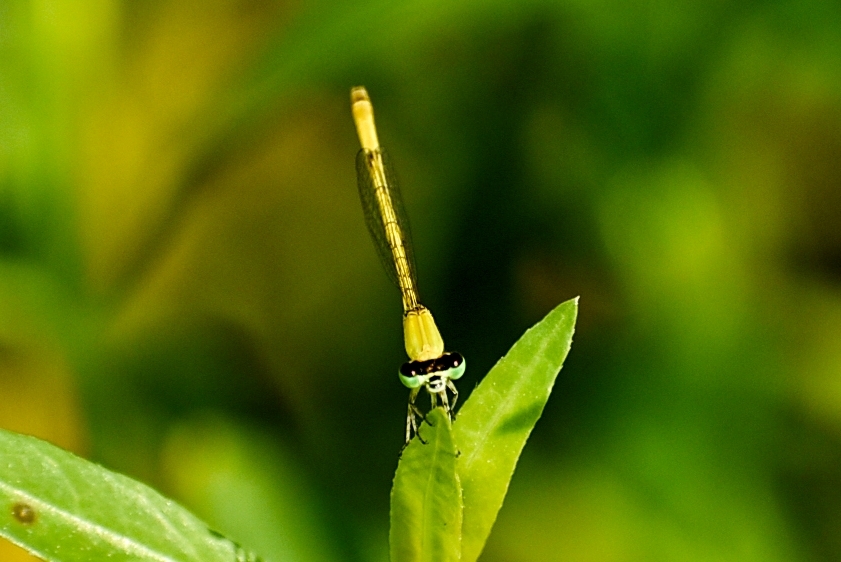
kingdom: Animalia
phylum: Arthropoda
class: Insecta
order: Odonata
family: Coenagrionidae
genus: Agriocnemis
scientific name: Agriocnemis kalinga
